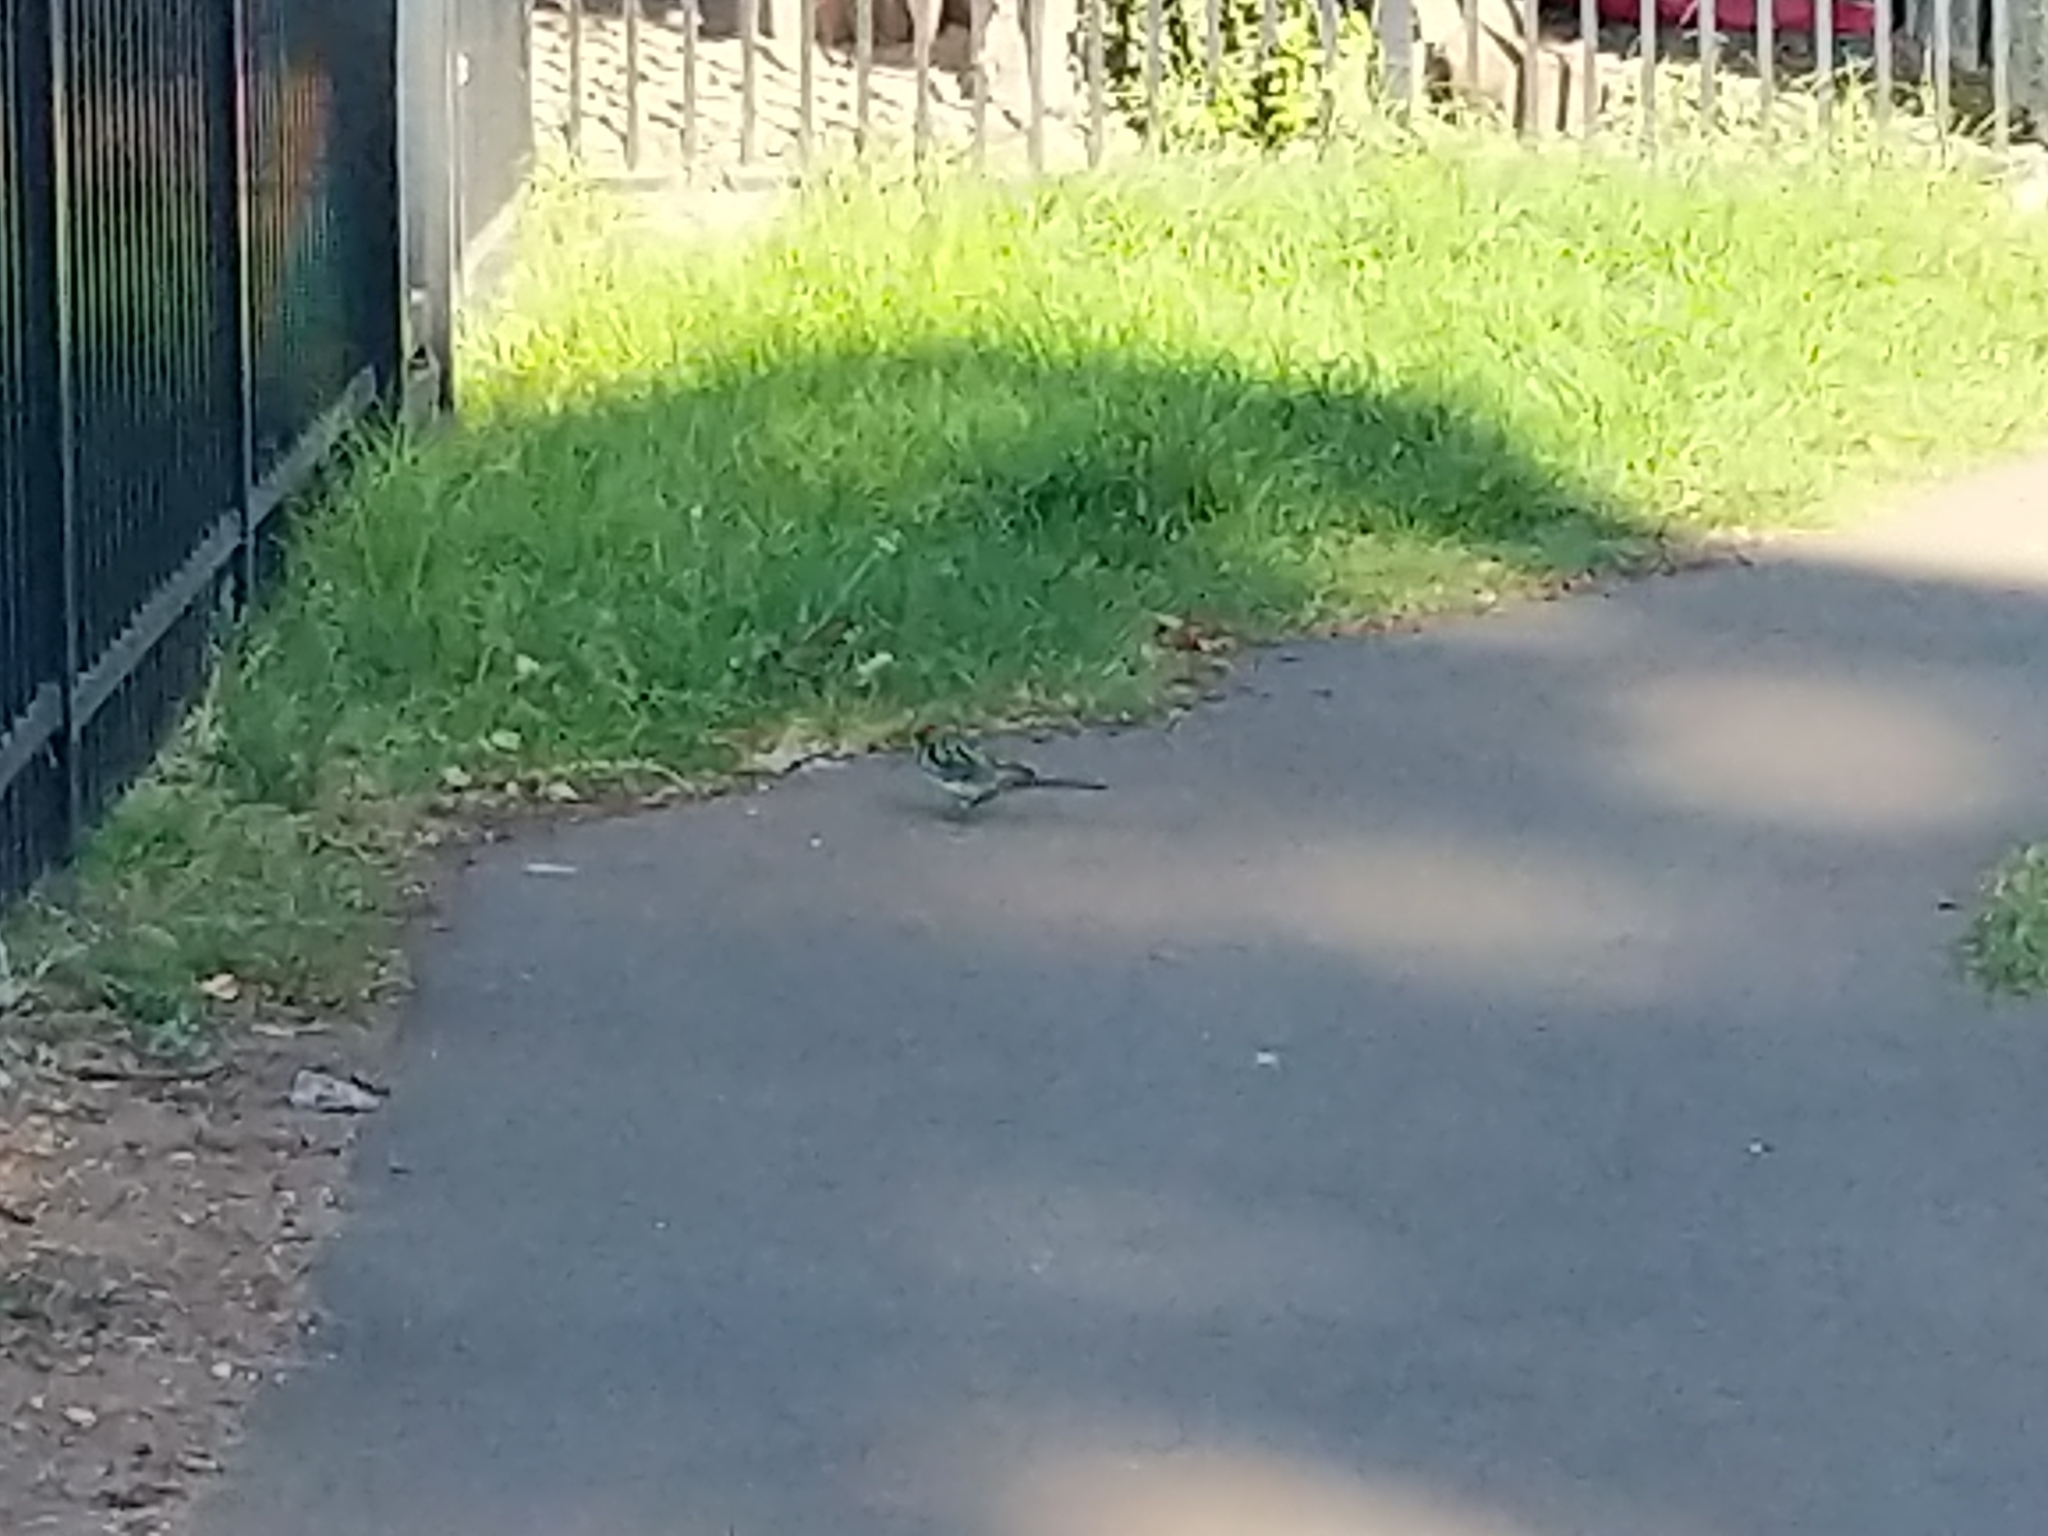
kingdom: Animalia
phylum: Chordata
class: Aves
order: Psittaciformes
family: Psittacidae
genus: Platycercus
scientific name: Platycercus eximius
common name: Eastern rosella
